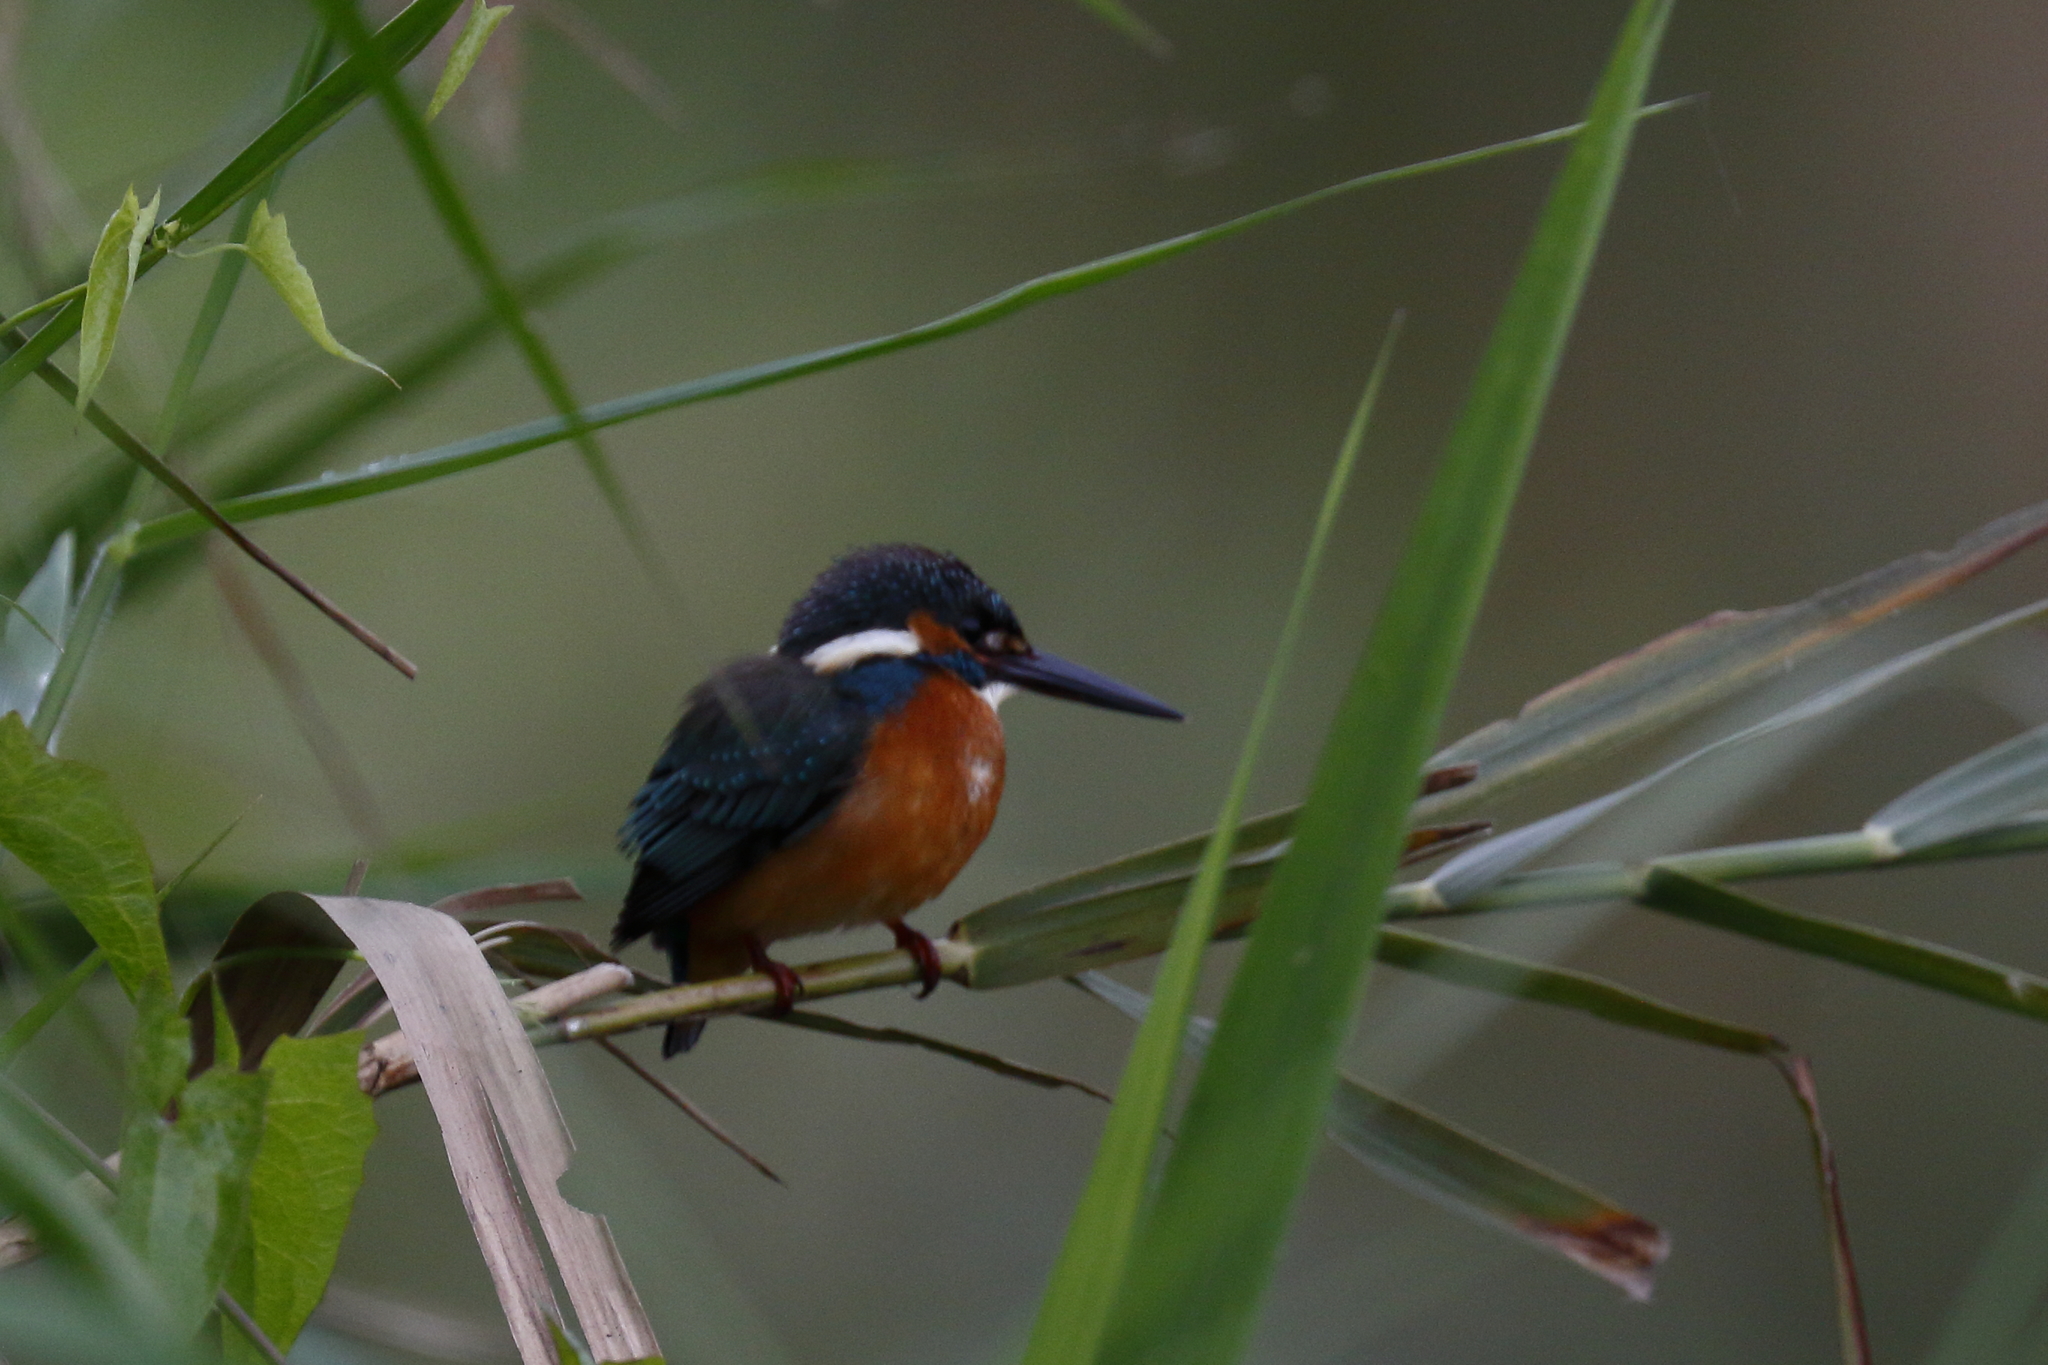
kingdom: Animalia
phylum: Chordata
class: Aves
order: Coraciiformes
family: Alcedinidae
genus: Alcedo
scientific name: Alcedo atthis
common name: Common kingfisher
